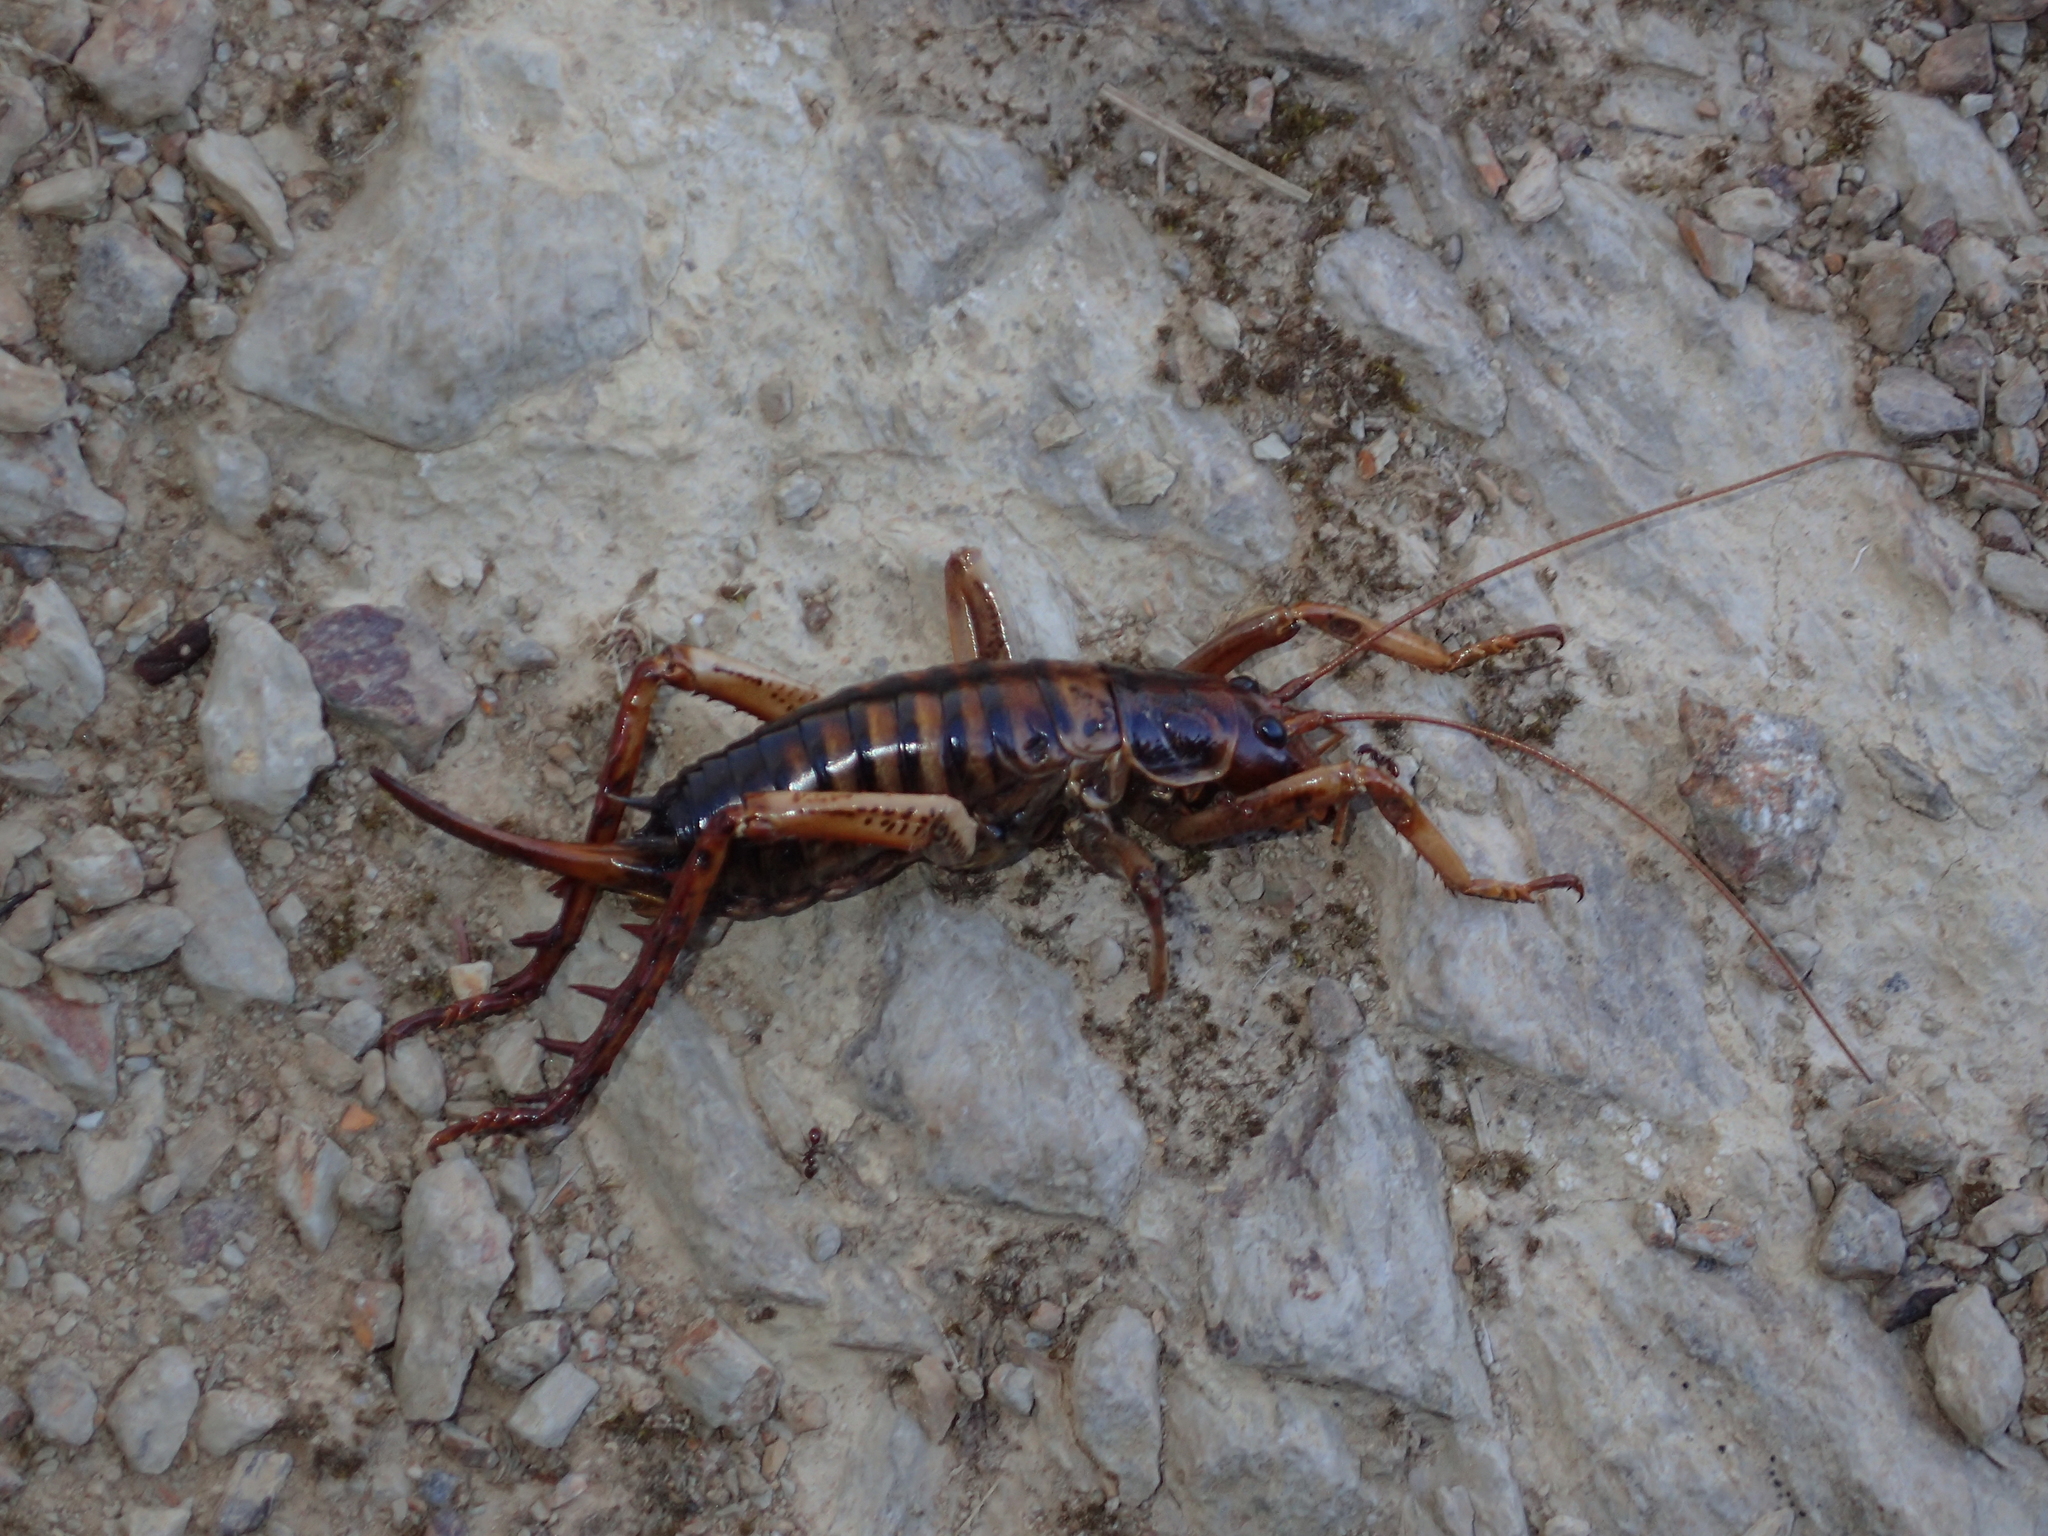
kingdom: Animalia
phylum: Arthropoda
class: Insecta
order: Orthoptera
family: Anostostomatidae
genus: Hemideina
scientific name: Hemideina crassidens
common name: Wellington tree weta
